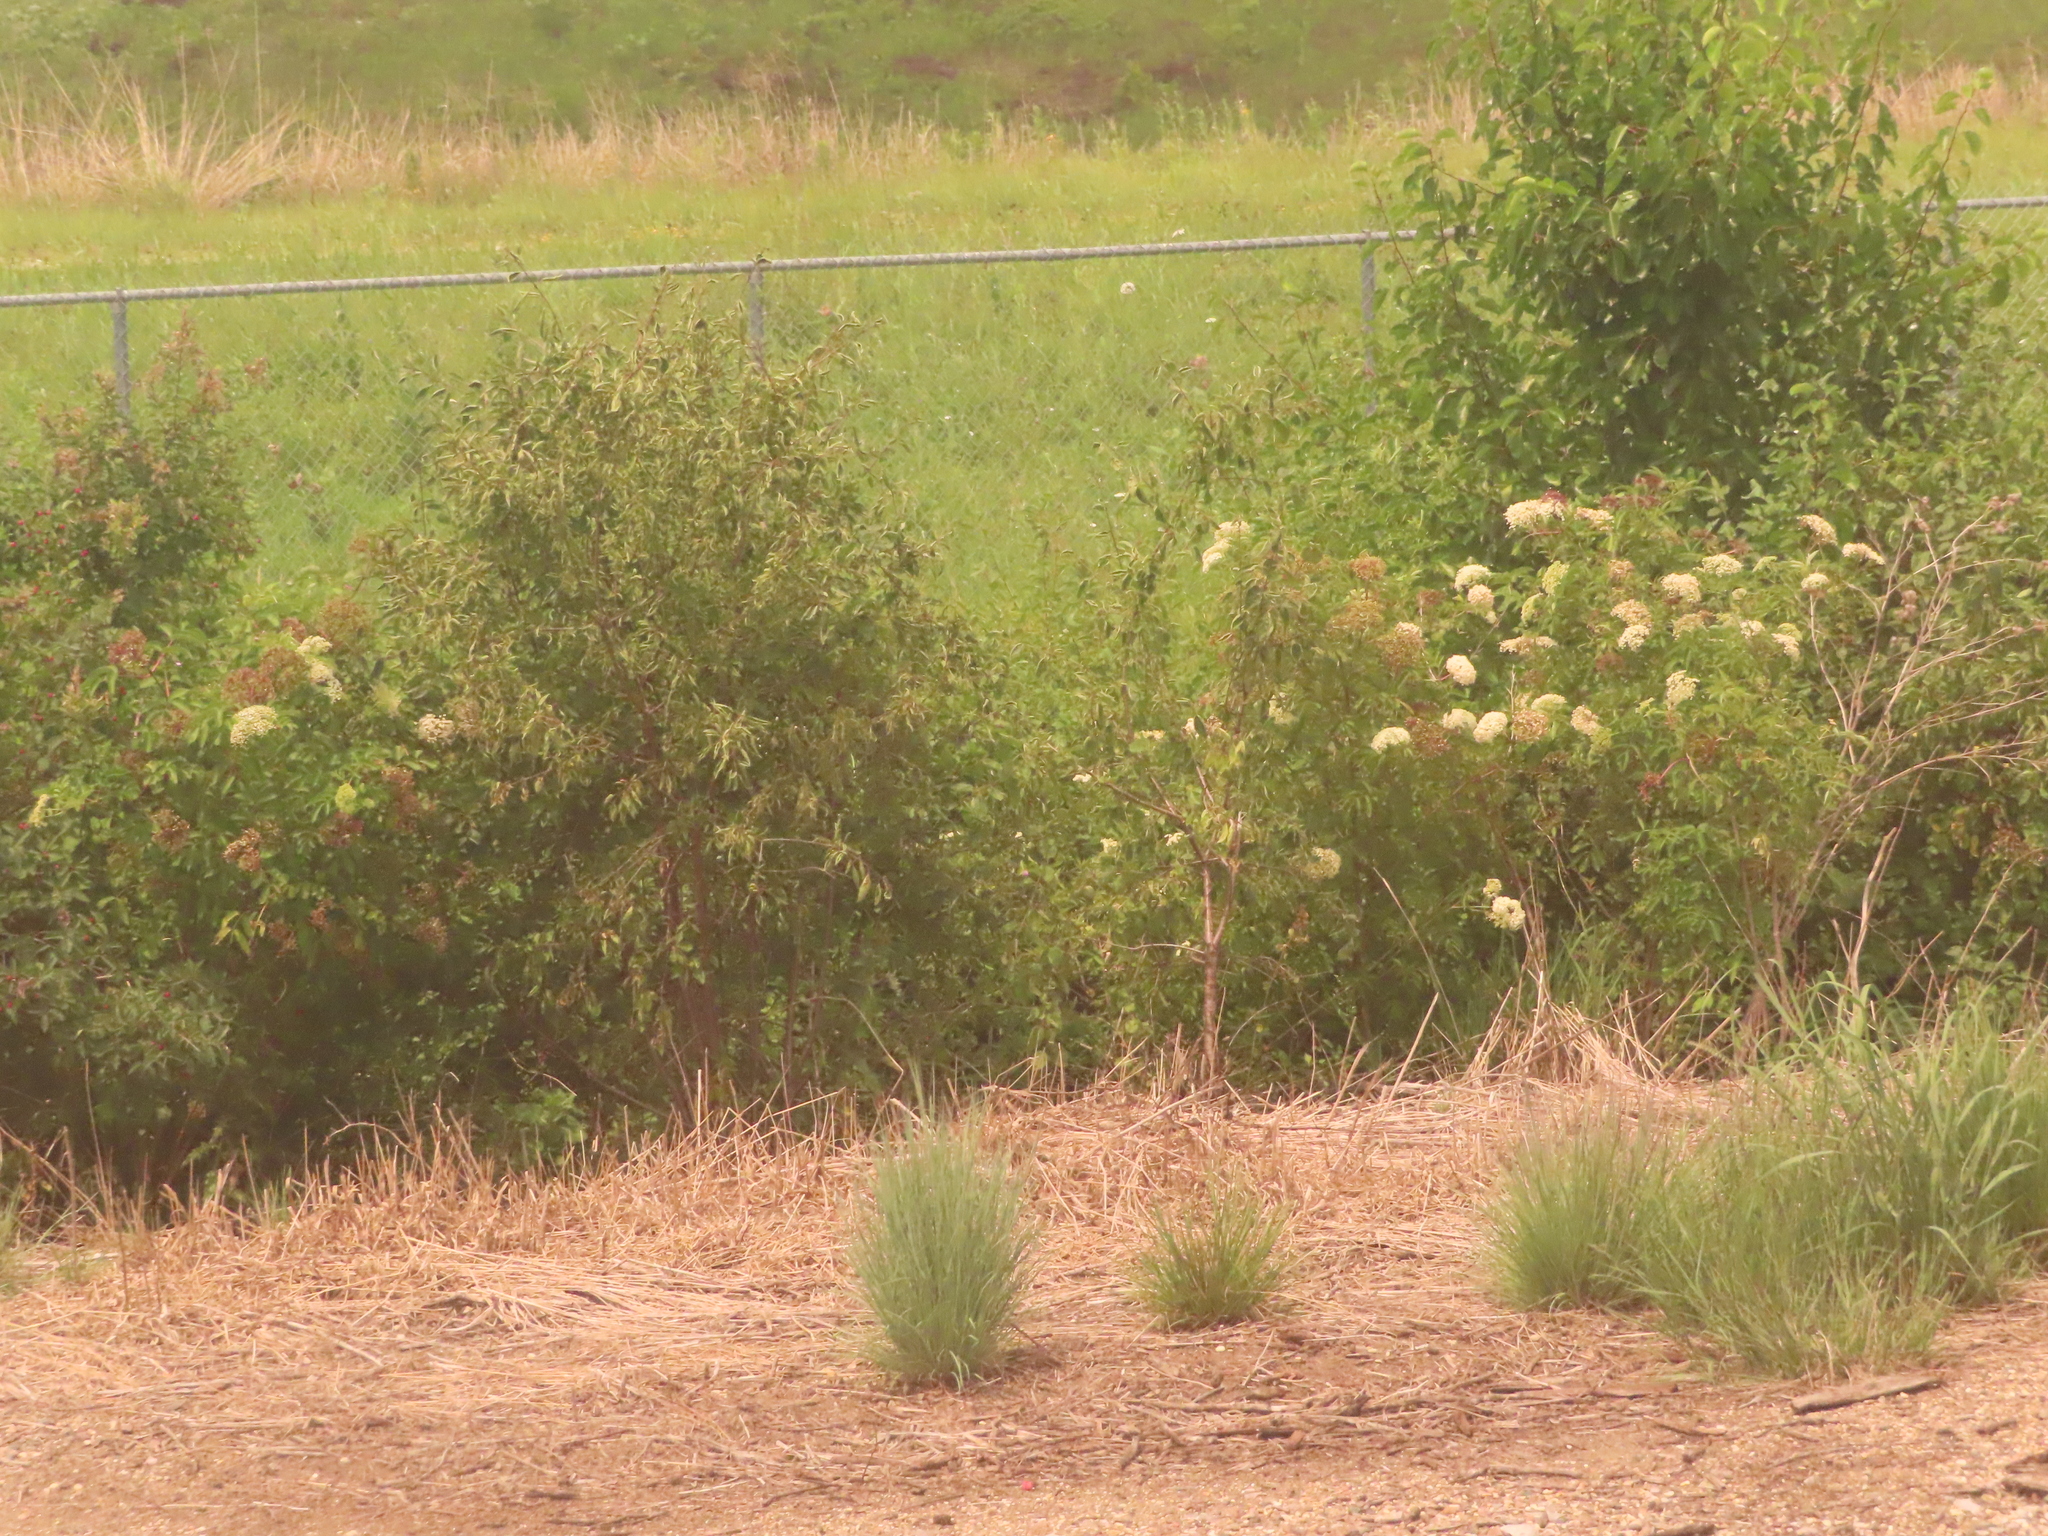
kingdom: Plantae
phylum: Tracheophyta
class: Magnoliopsida
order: Dipsacales
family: Viburnaceae
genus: Sambucus
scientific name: Sambucus canadensis
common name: American elder
